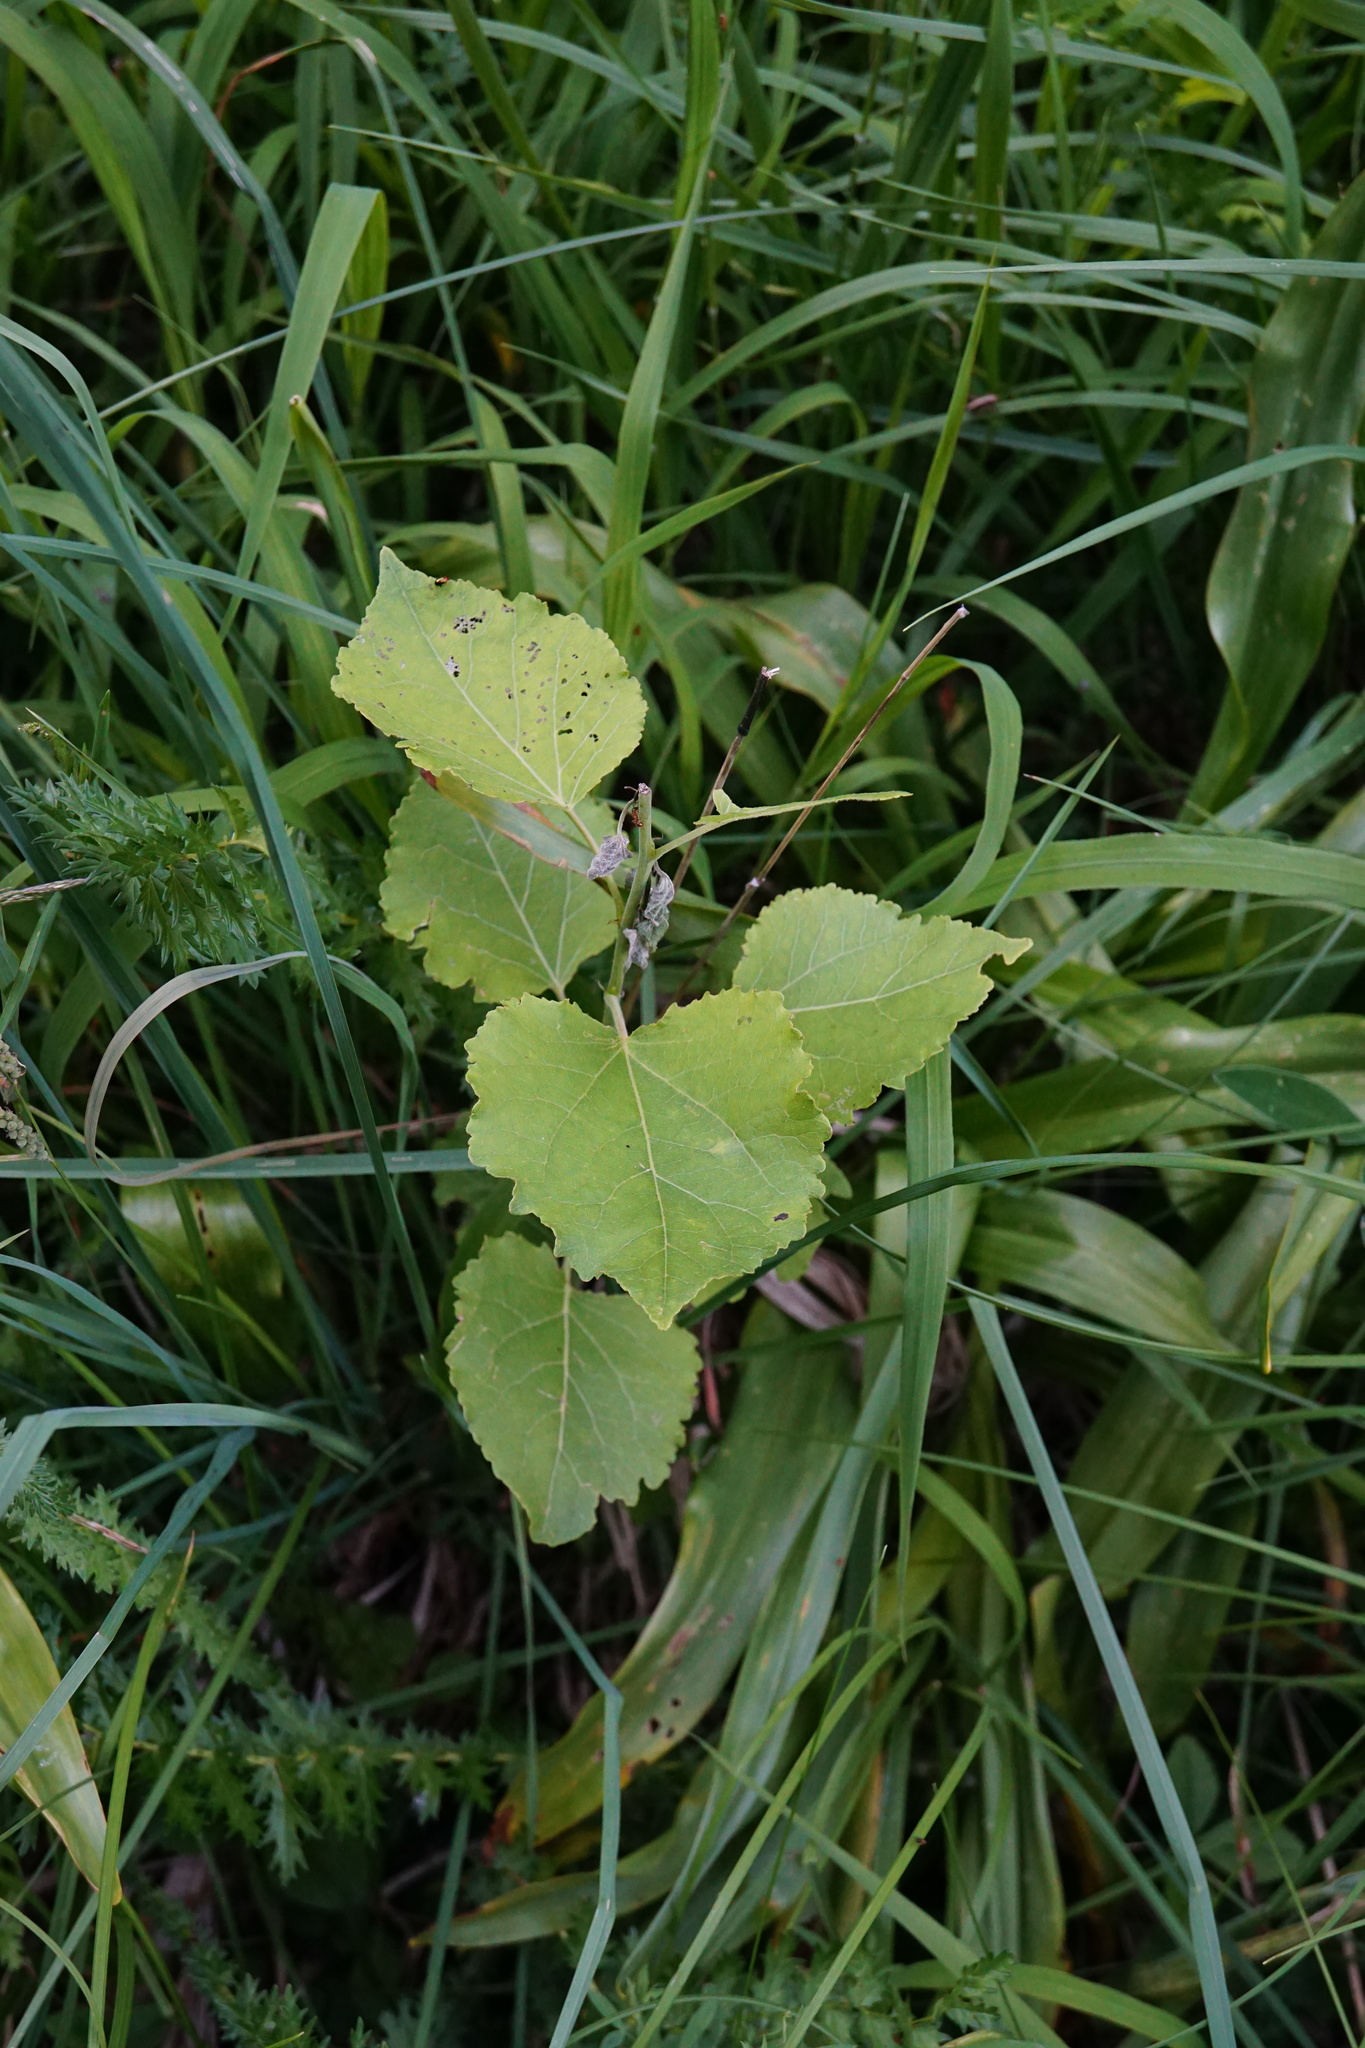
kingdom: Plantae
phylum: Tracheophyta
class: Magnoliopsida
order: Malpighiales
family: Salicaceae
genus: Populus
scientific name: Populus tremula
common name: European aspen
